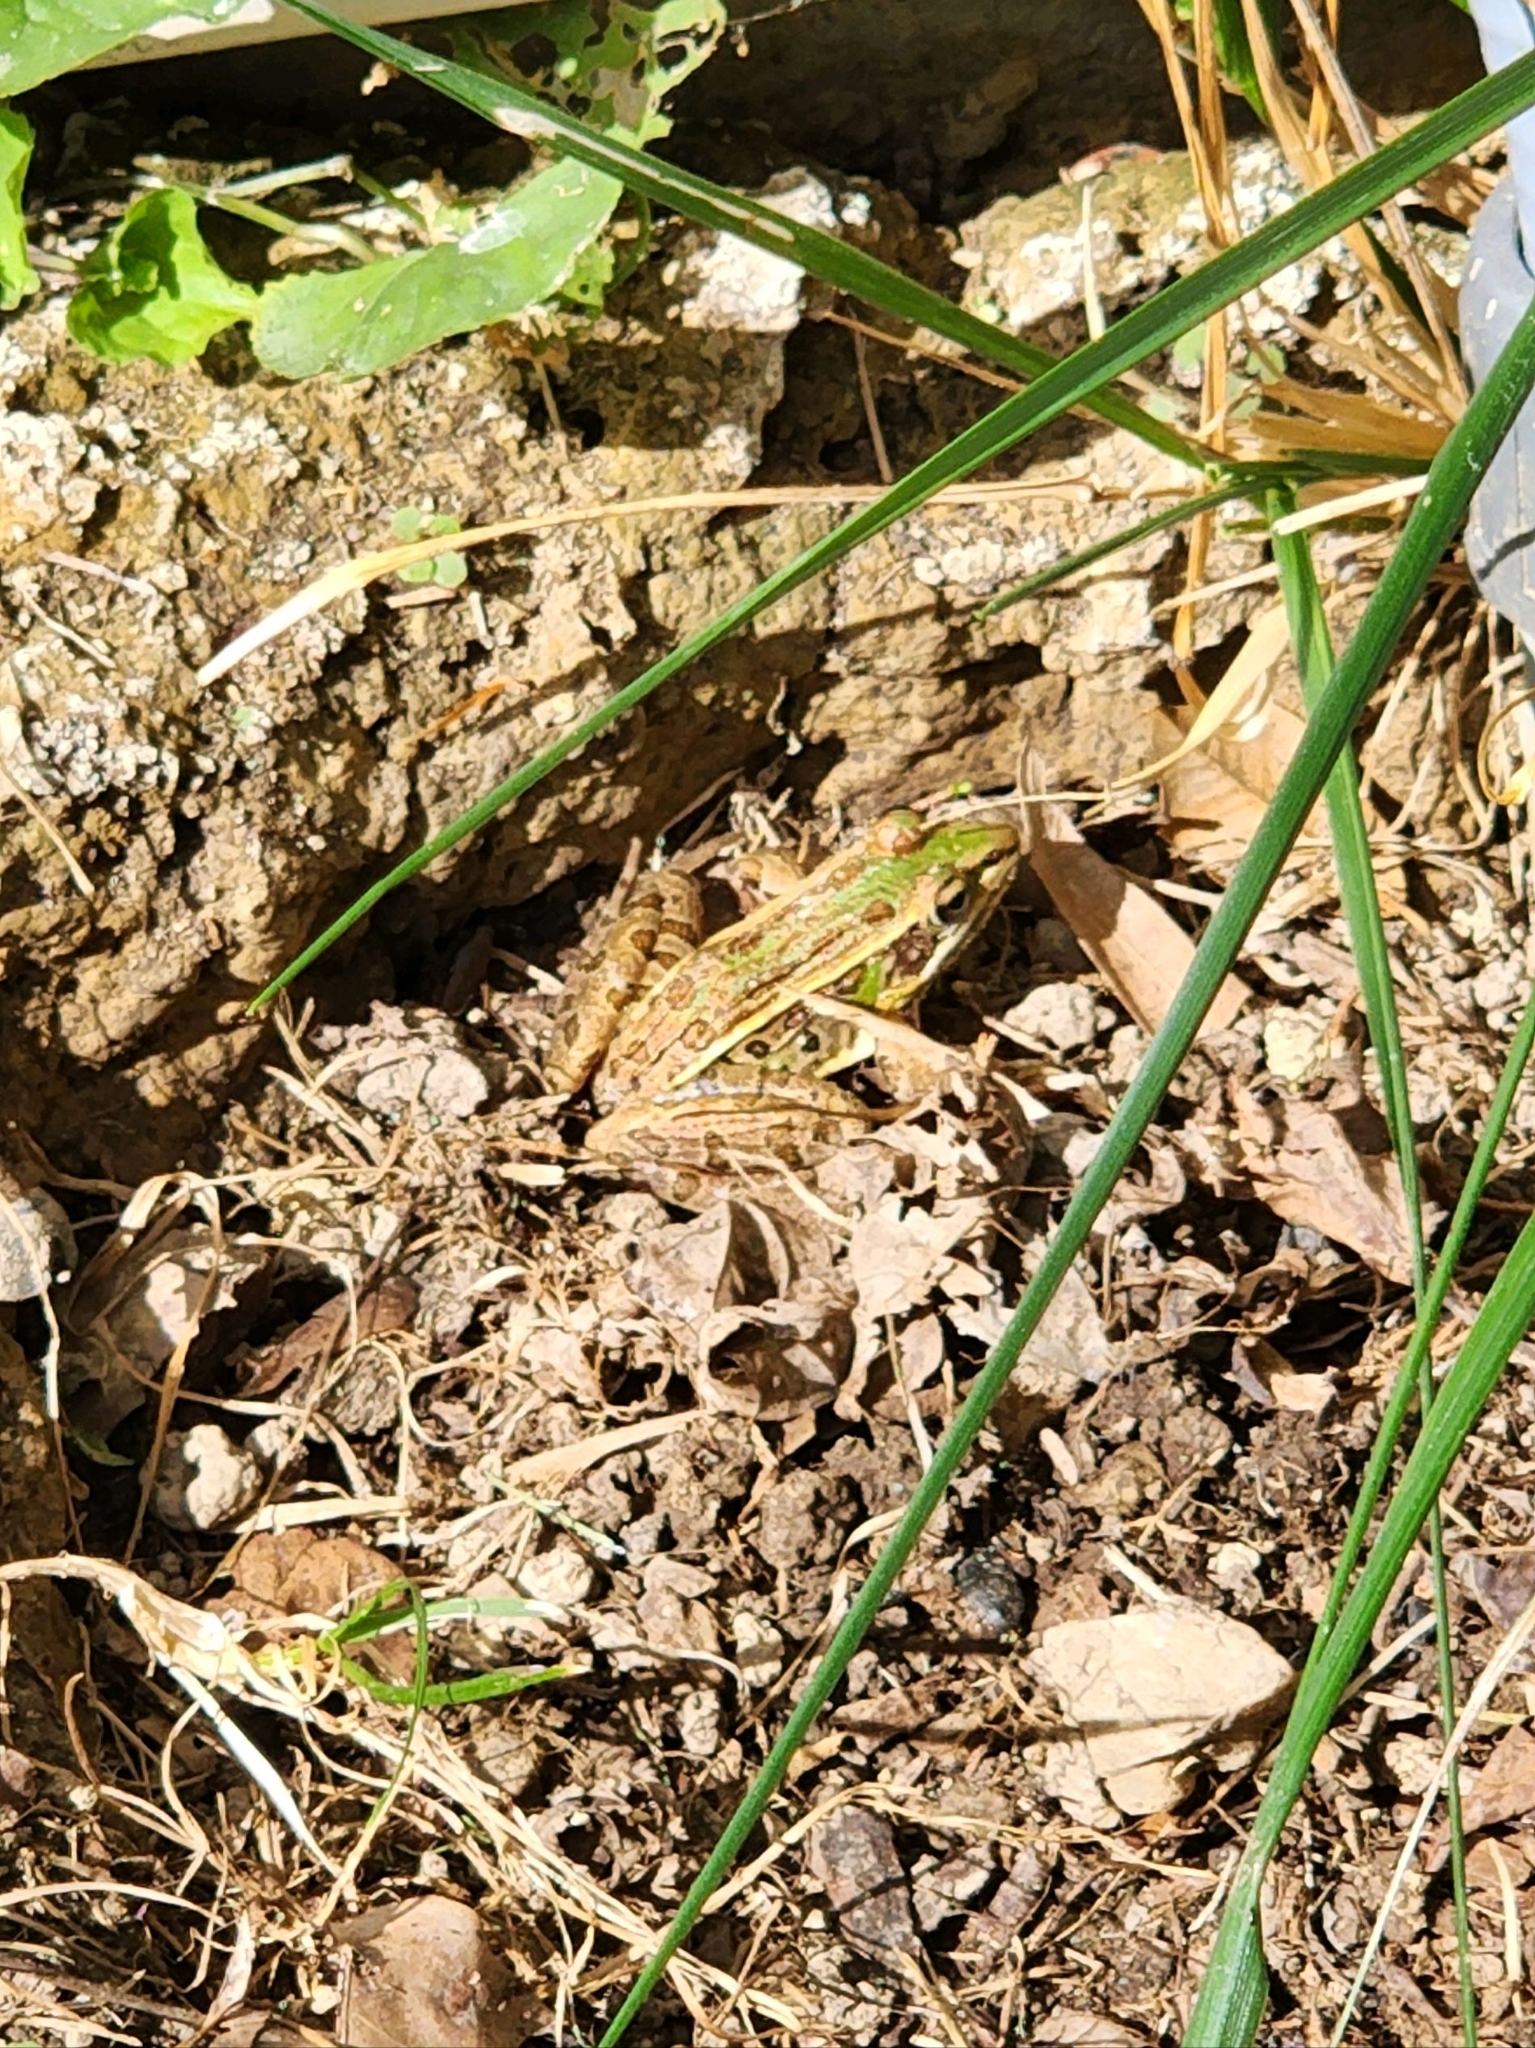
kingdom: Animalia
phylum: Chordata
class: Amphibia
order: Anura
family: Ranidae
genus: Lithobates
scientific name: Lithobates sphenocephalus
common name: Southern leopard frog
